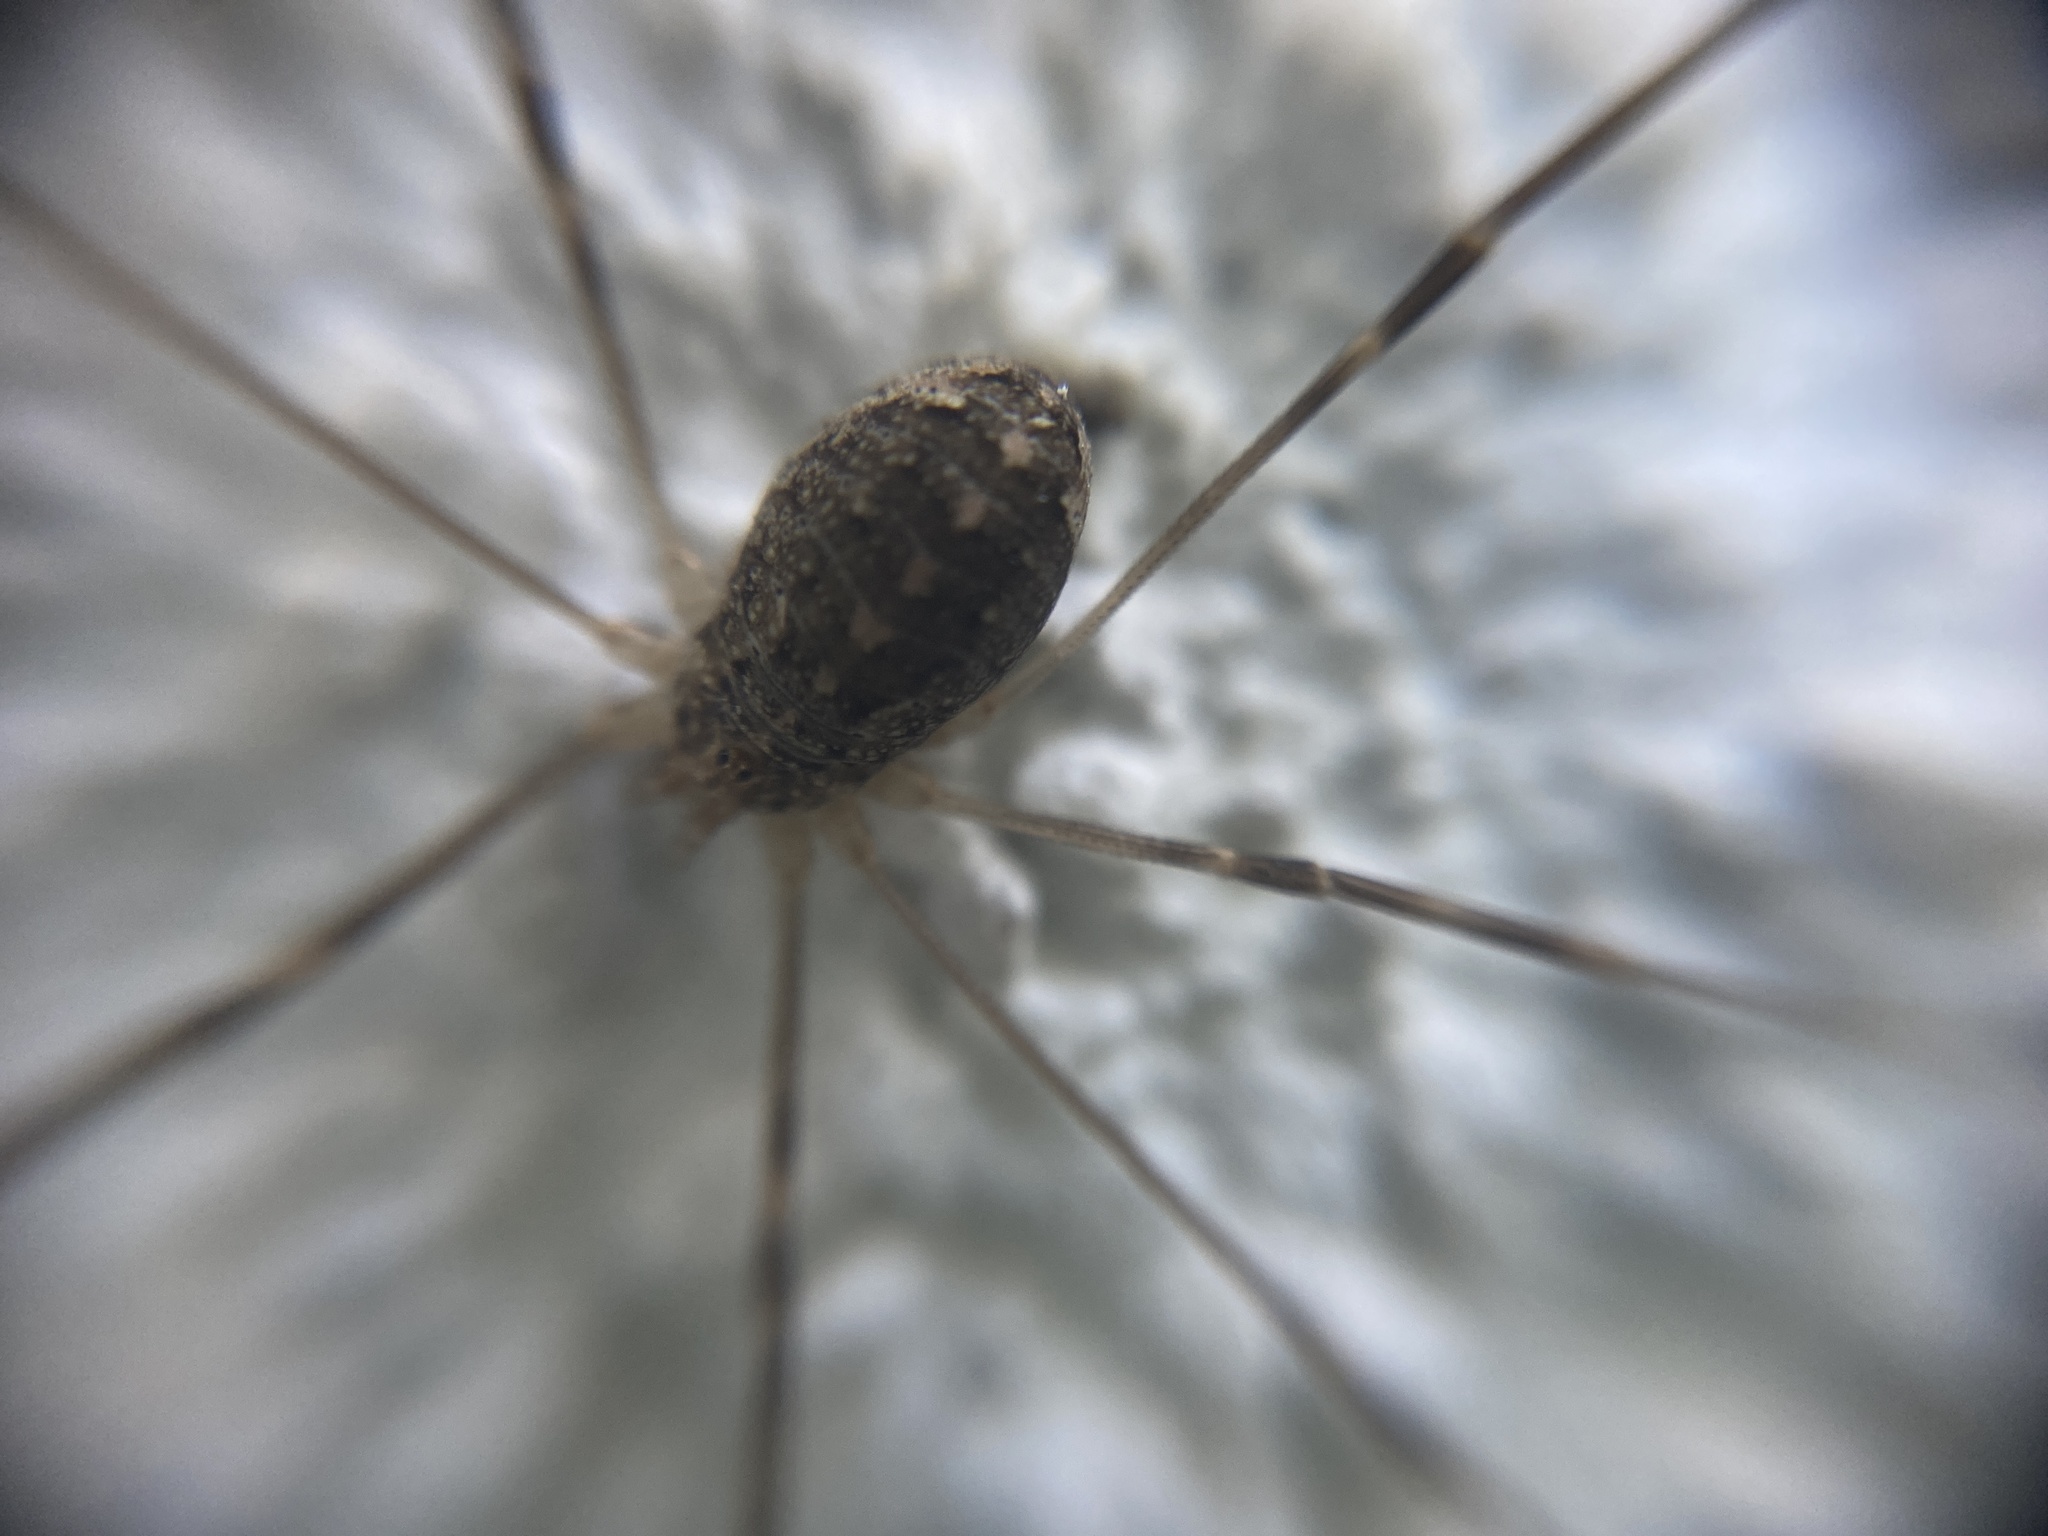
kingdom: Animalia
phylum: Arthropoda
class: Arachnida
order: Opiliones
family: Phalangiidae
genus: Opilio
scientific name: Opilio saxatilis
